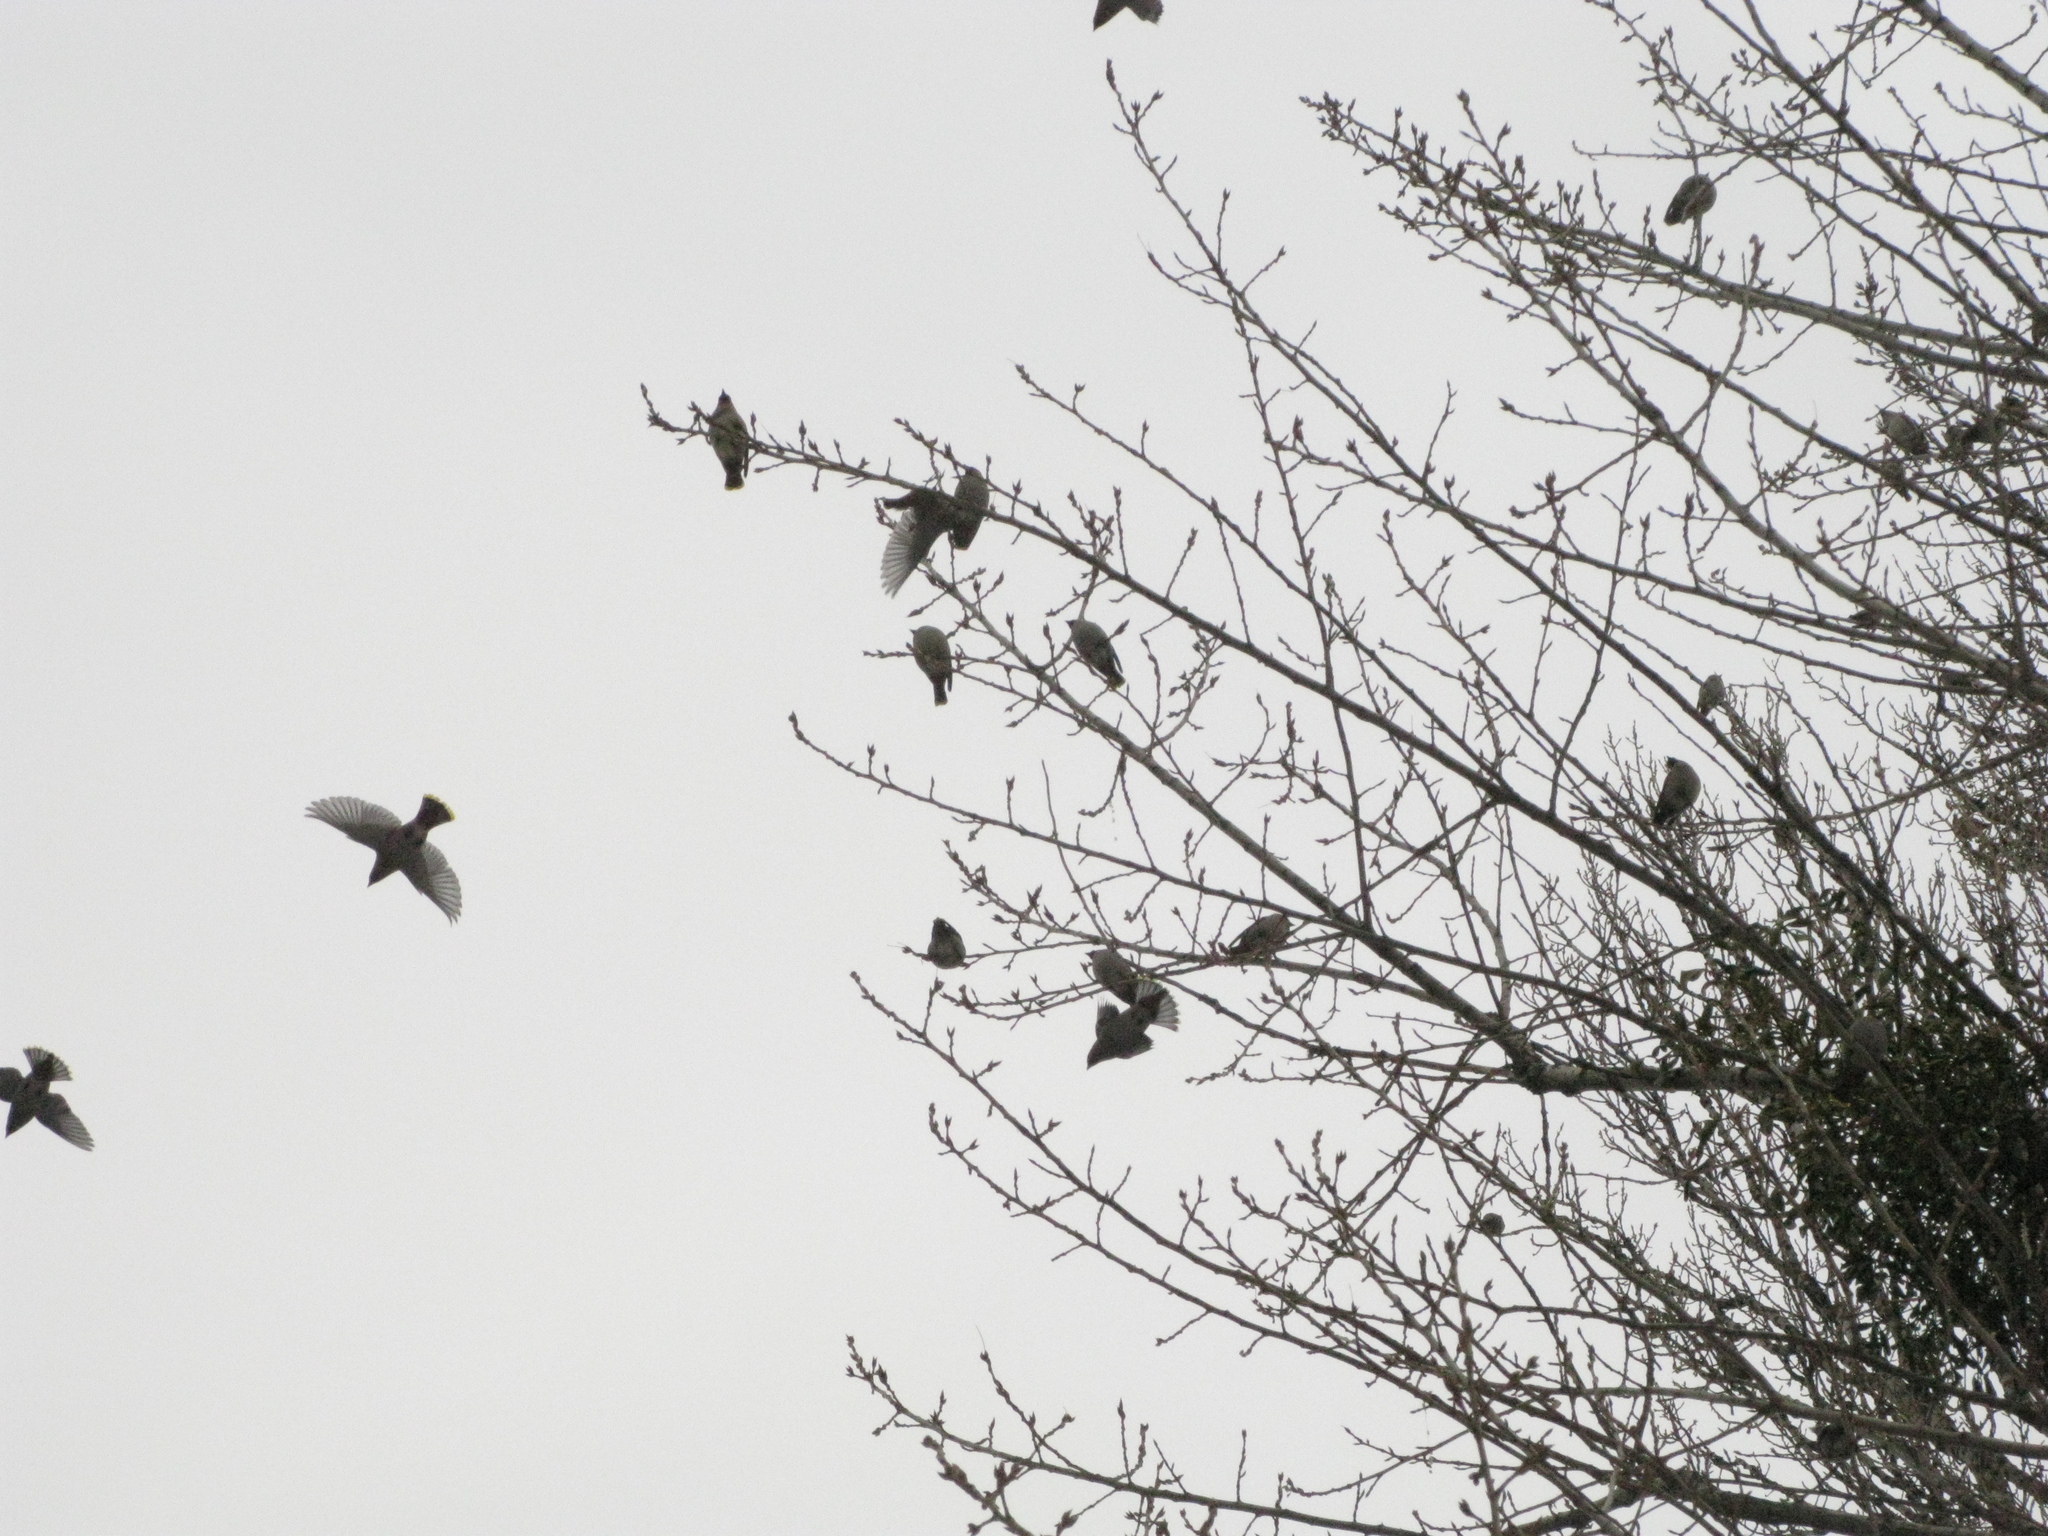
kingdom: Animalia
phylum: Chordata
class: Aves
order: Passeriformes
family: Bombycillidae
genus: Bombycilla
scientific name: Bombycilla garrulus
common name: Bohemian waxwing
